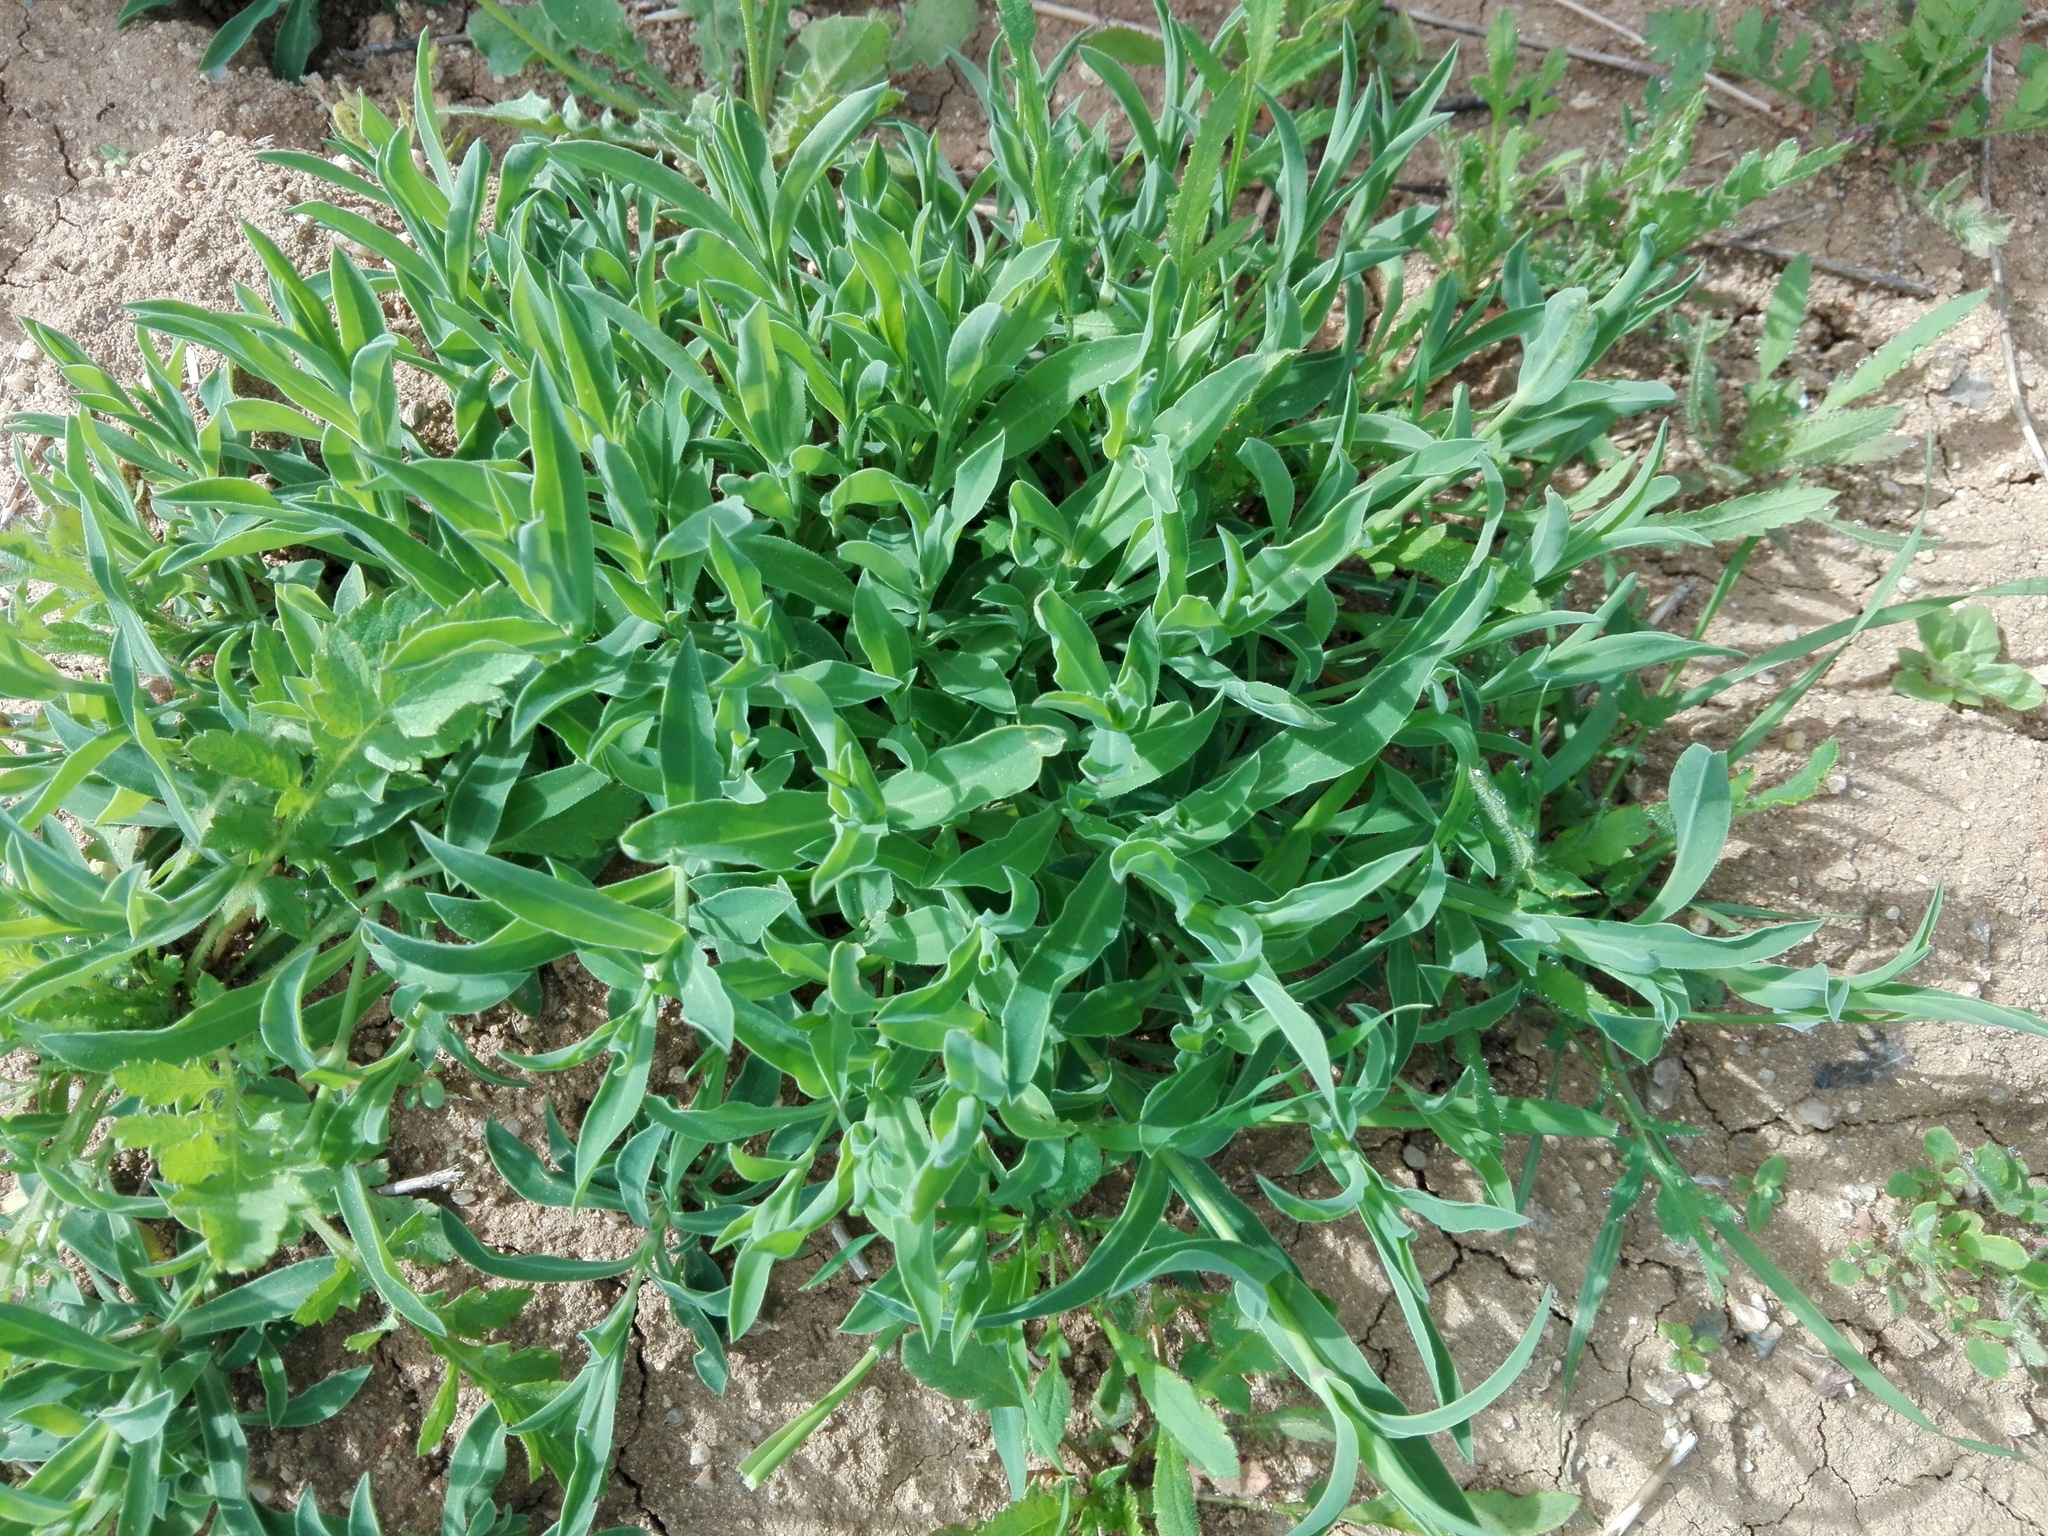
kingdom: Plantae
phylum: Tracheophyta
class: Magnoliopsida
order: Caryophyllales
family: Caryophyllaceae
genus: Silene
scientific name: Silene vulgaris
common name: Bladder campion
